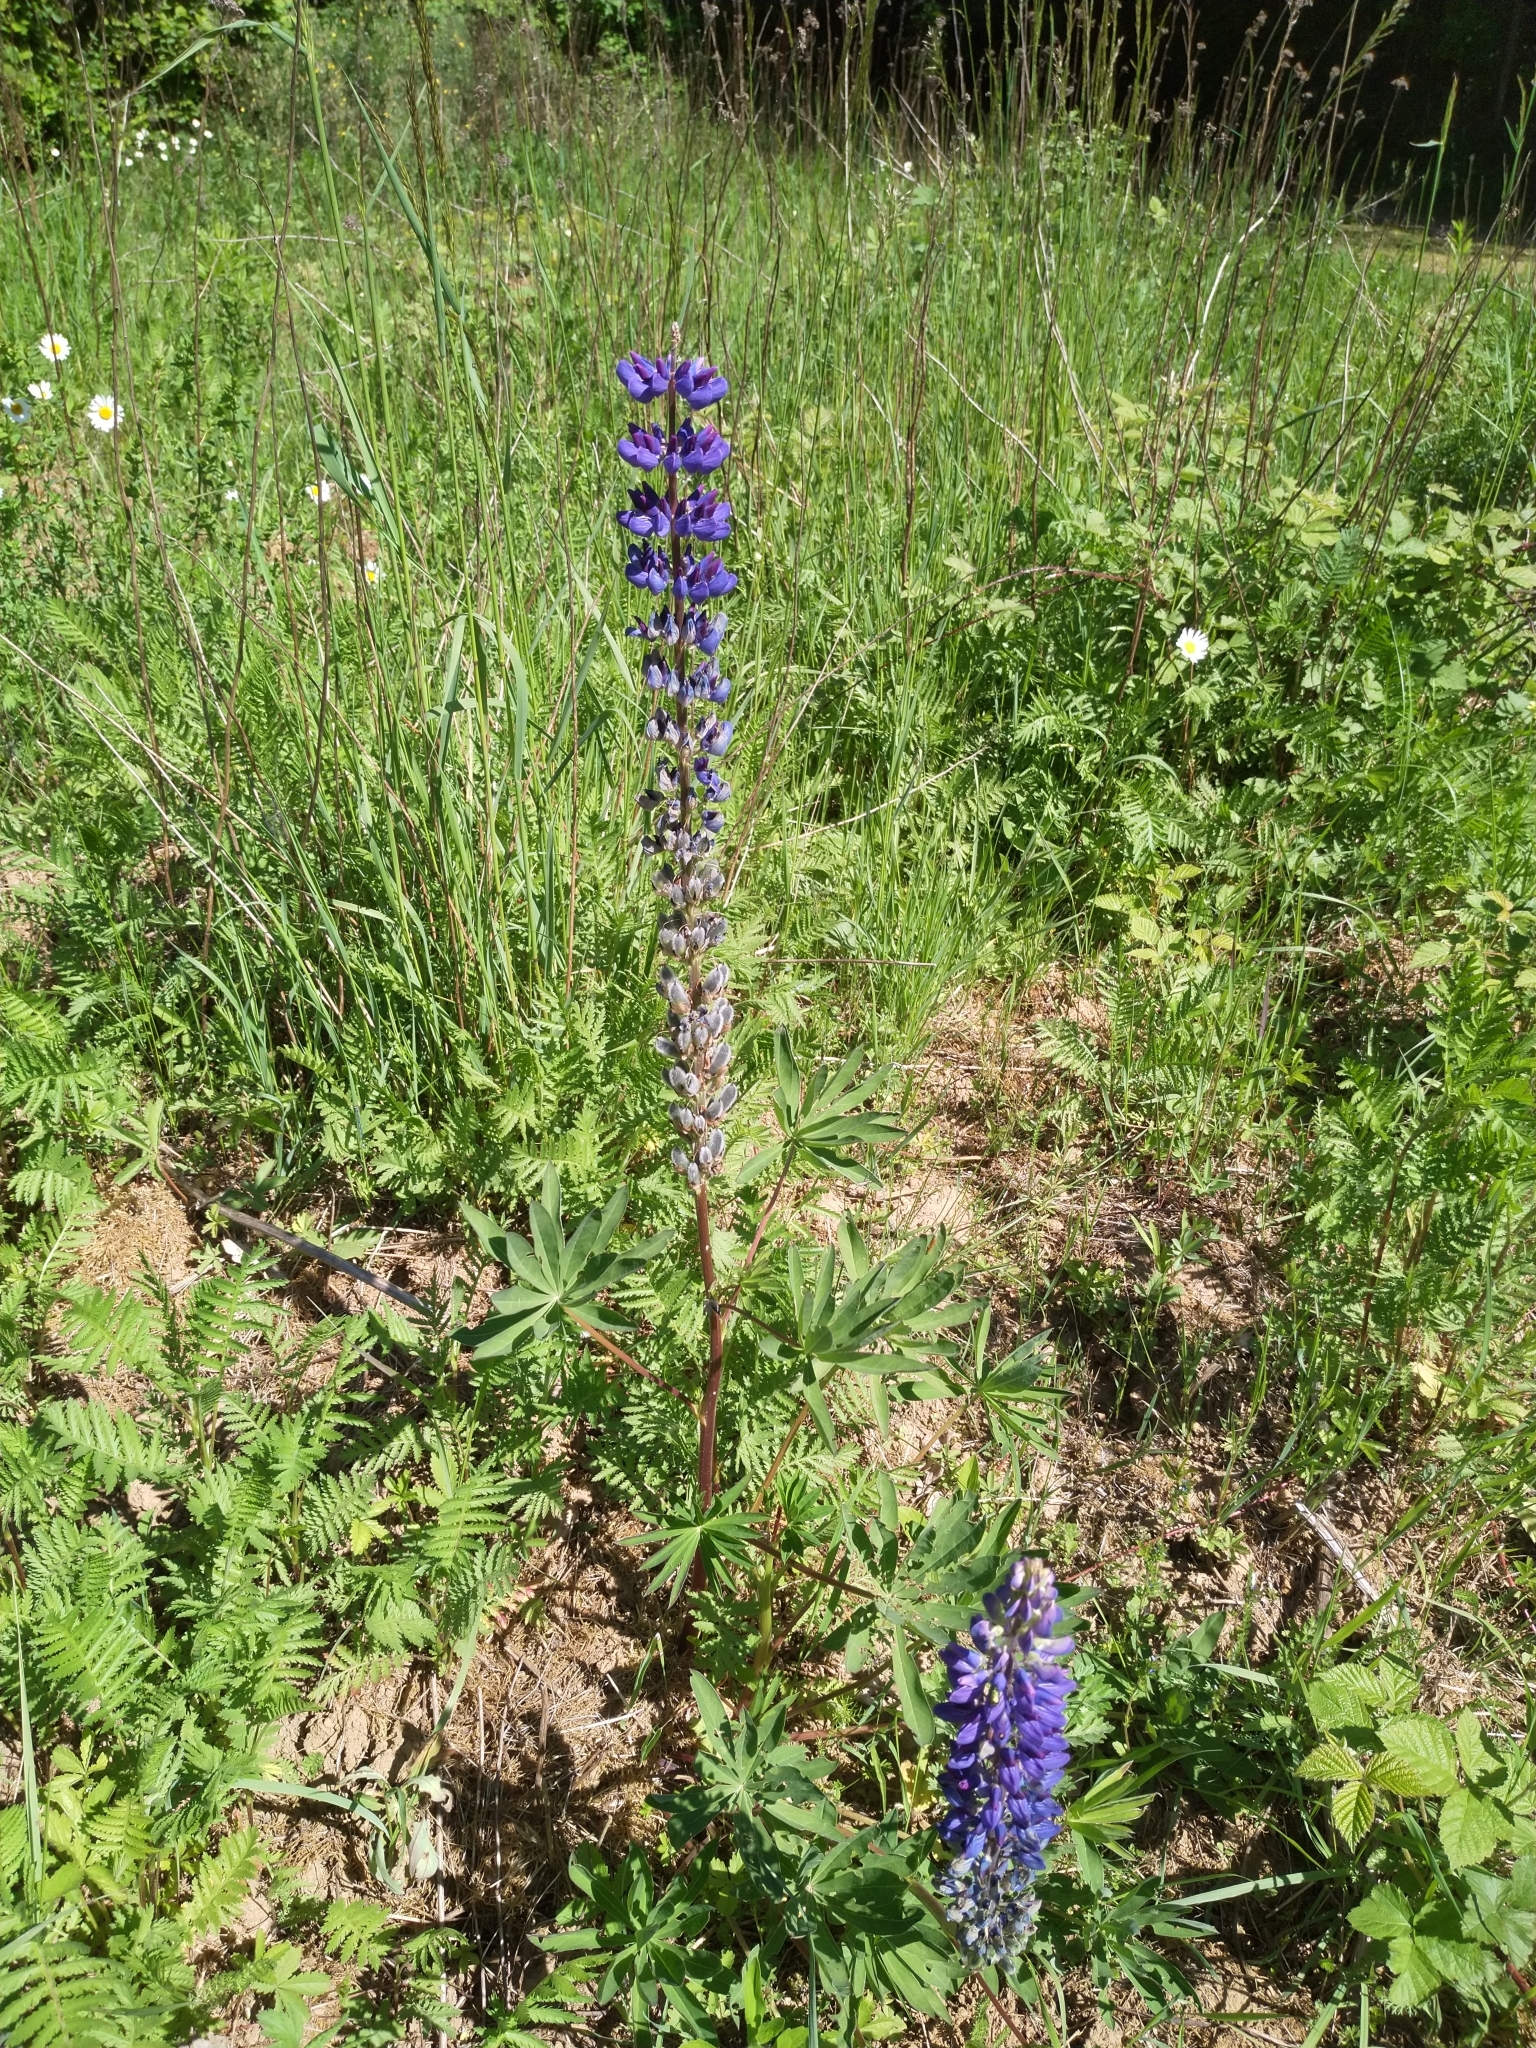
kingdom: Plantae
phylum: Tracheophyta
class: Magnoliopsida
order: Fabales
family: Fabaceae
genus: Lupinus
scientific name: Lupinus polyphyllus
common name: Garden lupin
